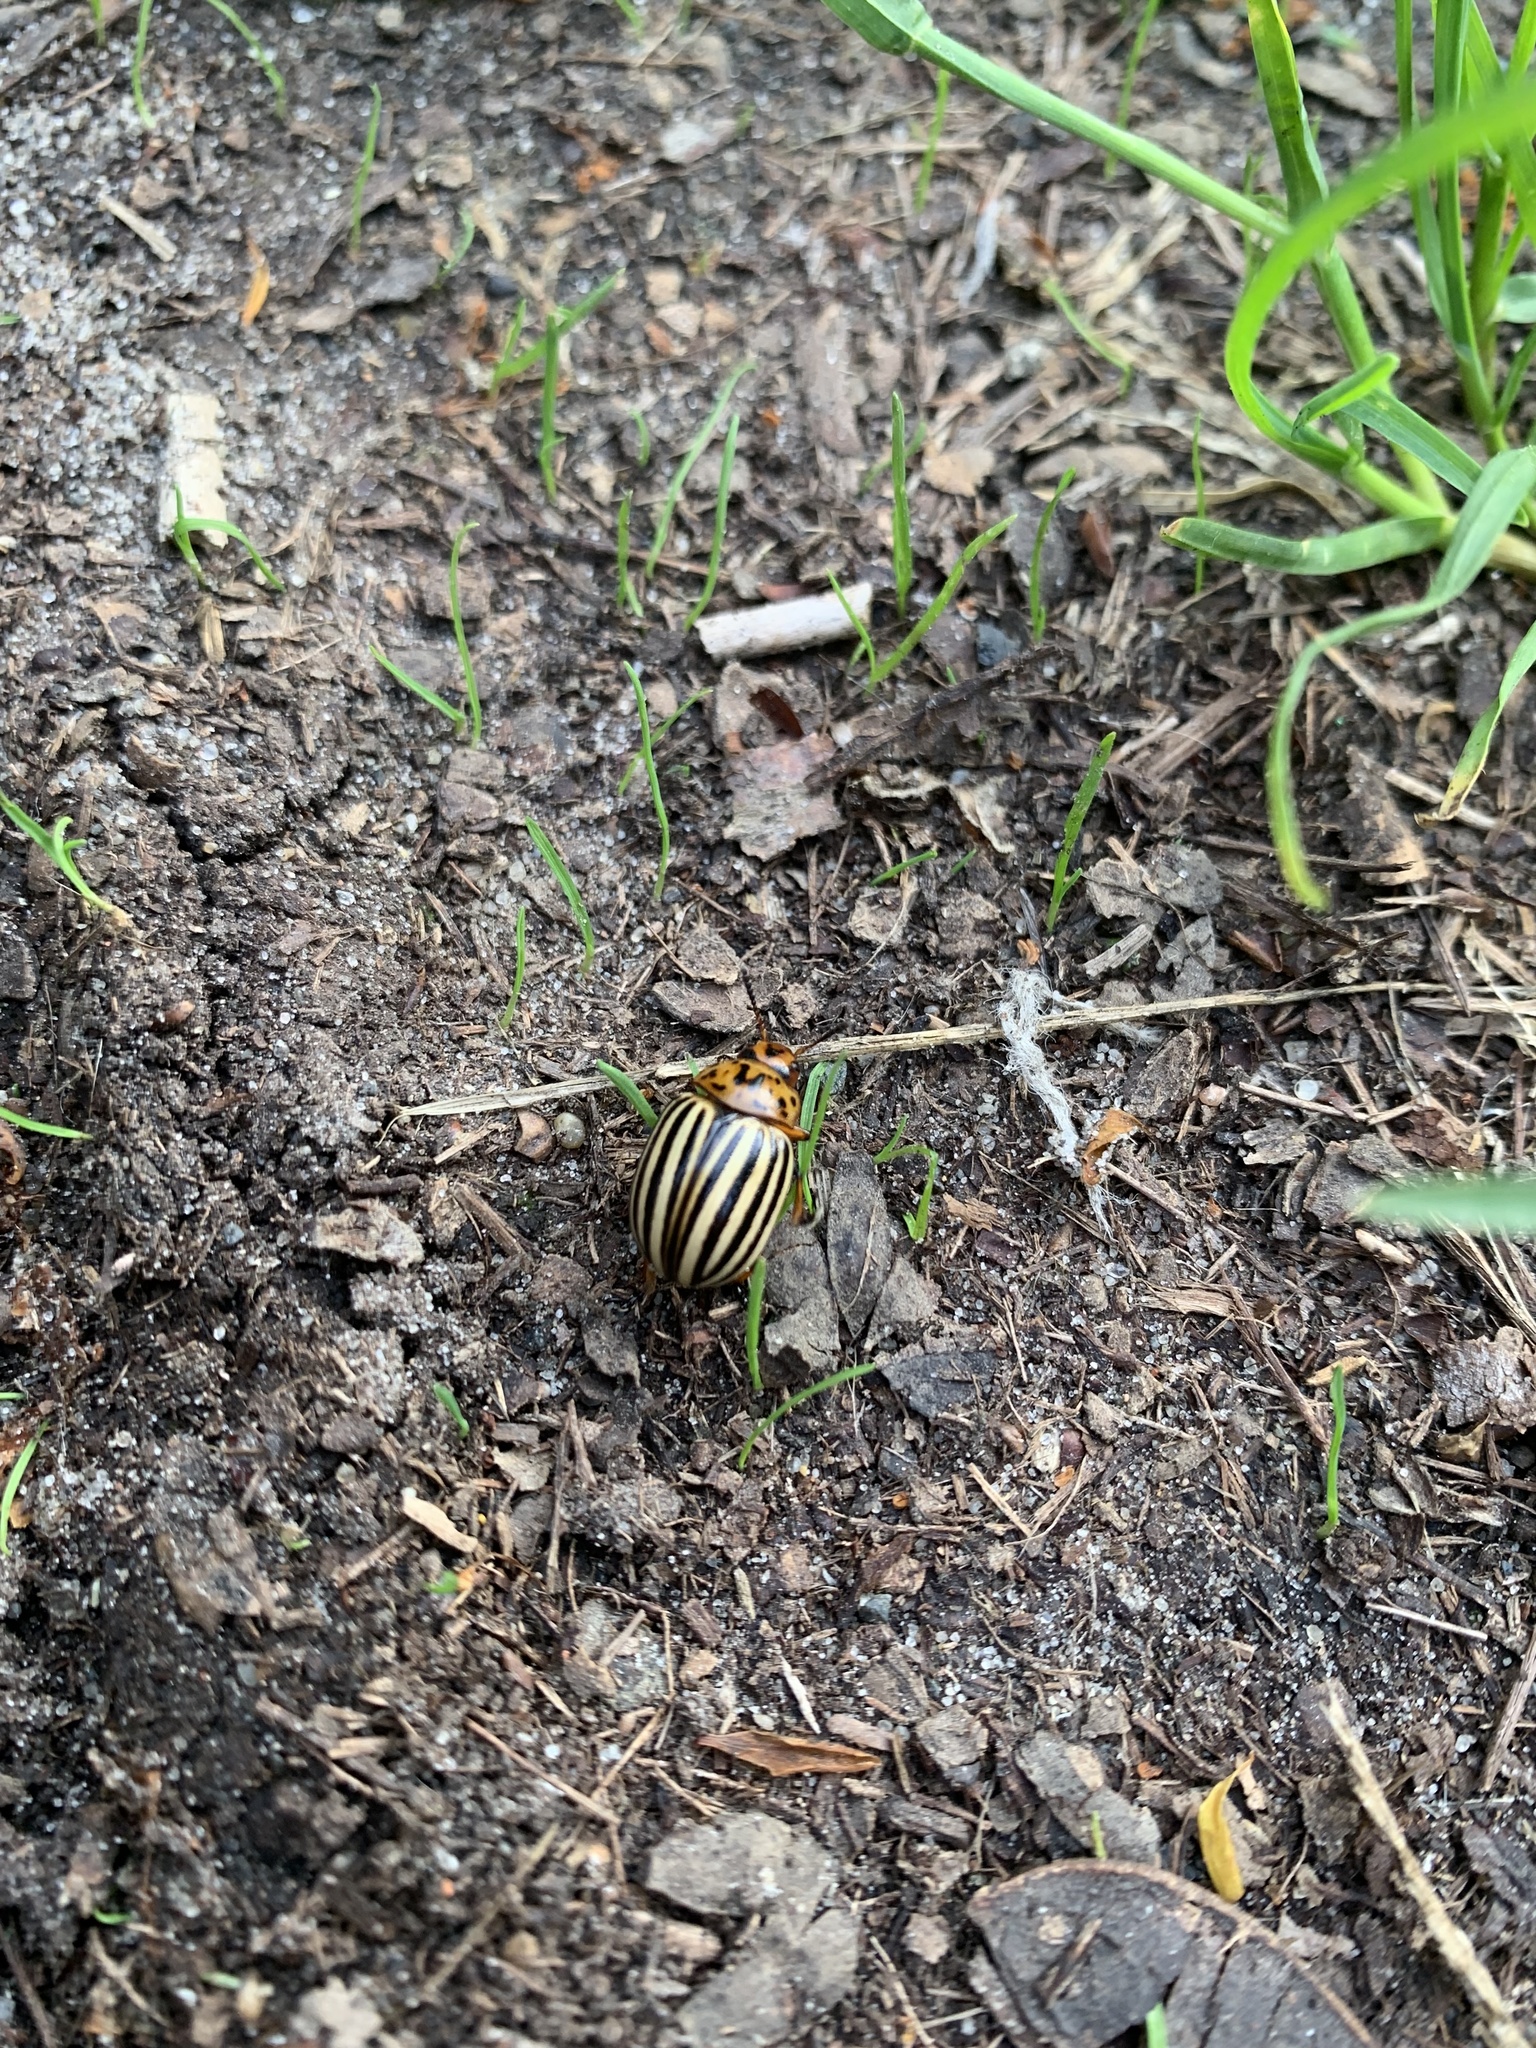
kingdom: Animalia
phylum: Arthropoda
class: Insecta
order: Coleoptera
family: Chrysomelidae
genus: Leptinotarsa
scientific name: Leptinotarsa decemlineata
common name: Colorado potato beetle
